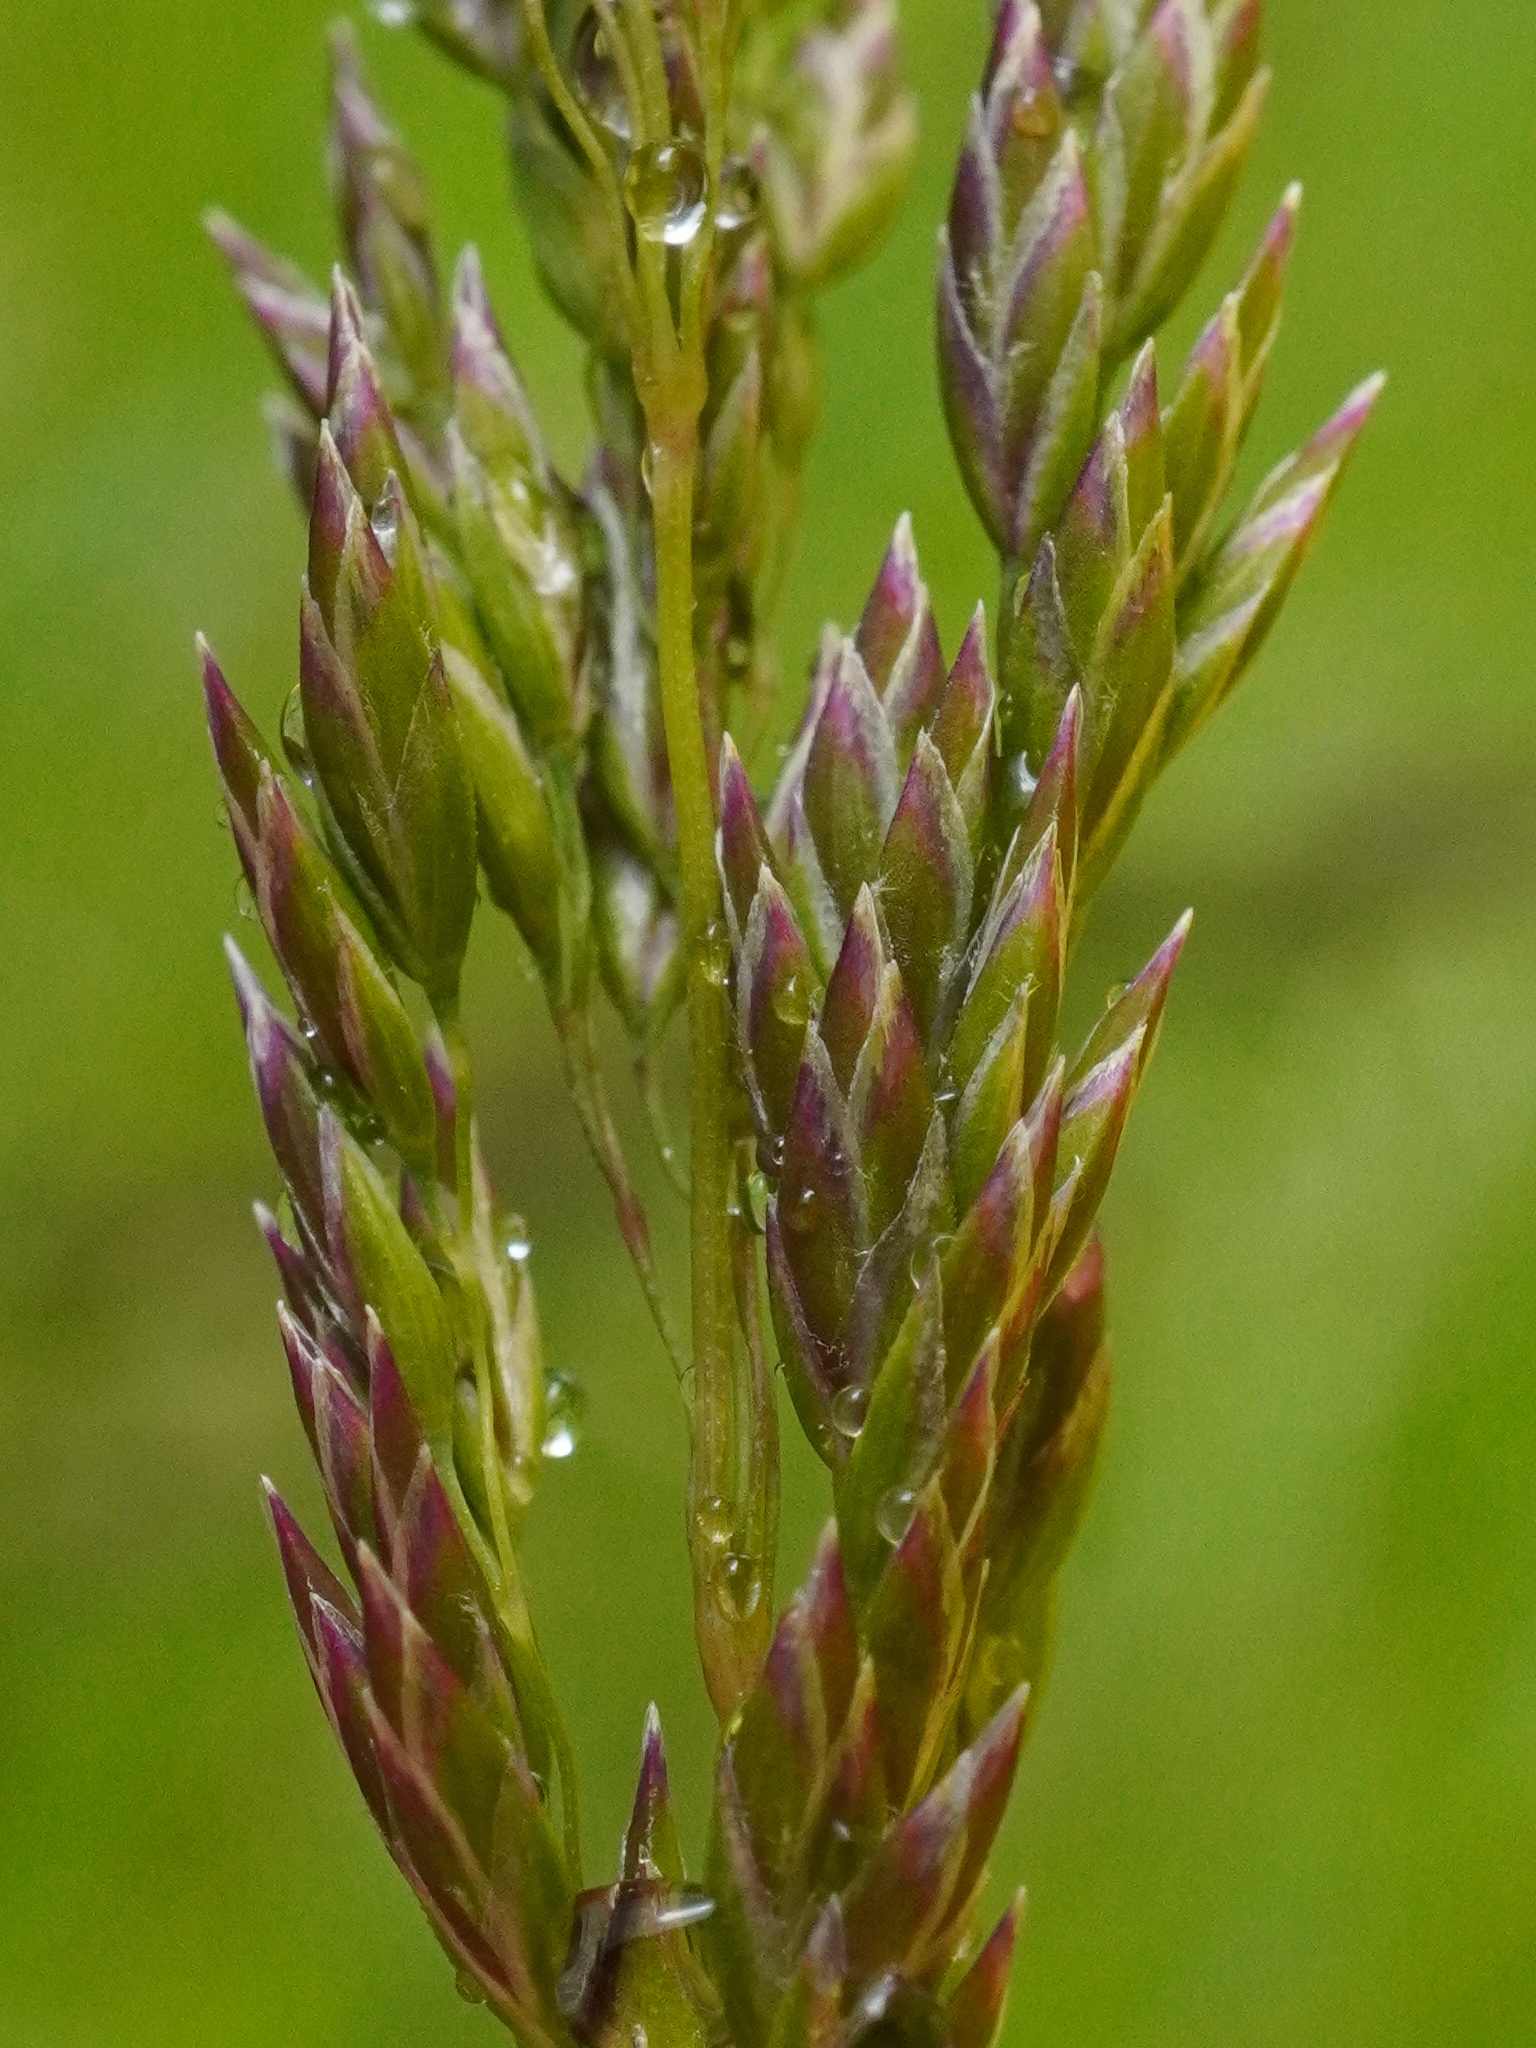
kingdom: Plantae
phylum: Tracheophyta
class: Liliopsida
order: Poales
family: Poaceae
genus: Poa
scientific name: Poa pratensis
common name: Kentucky bluegrass
